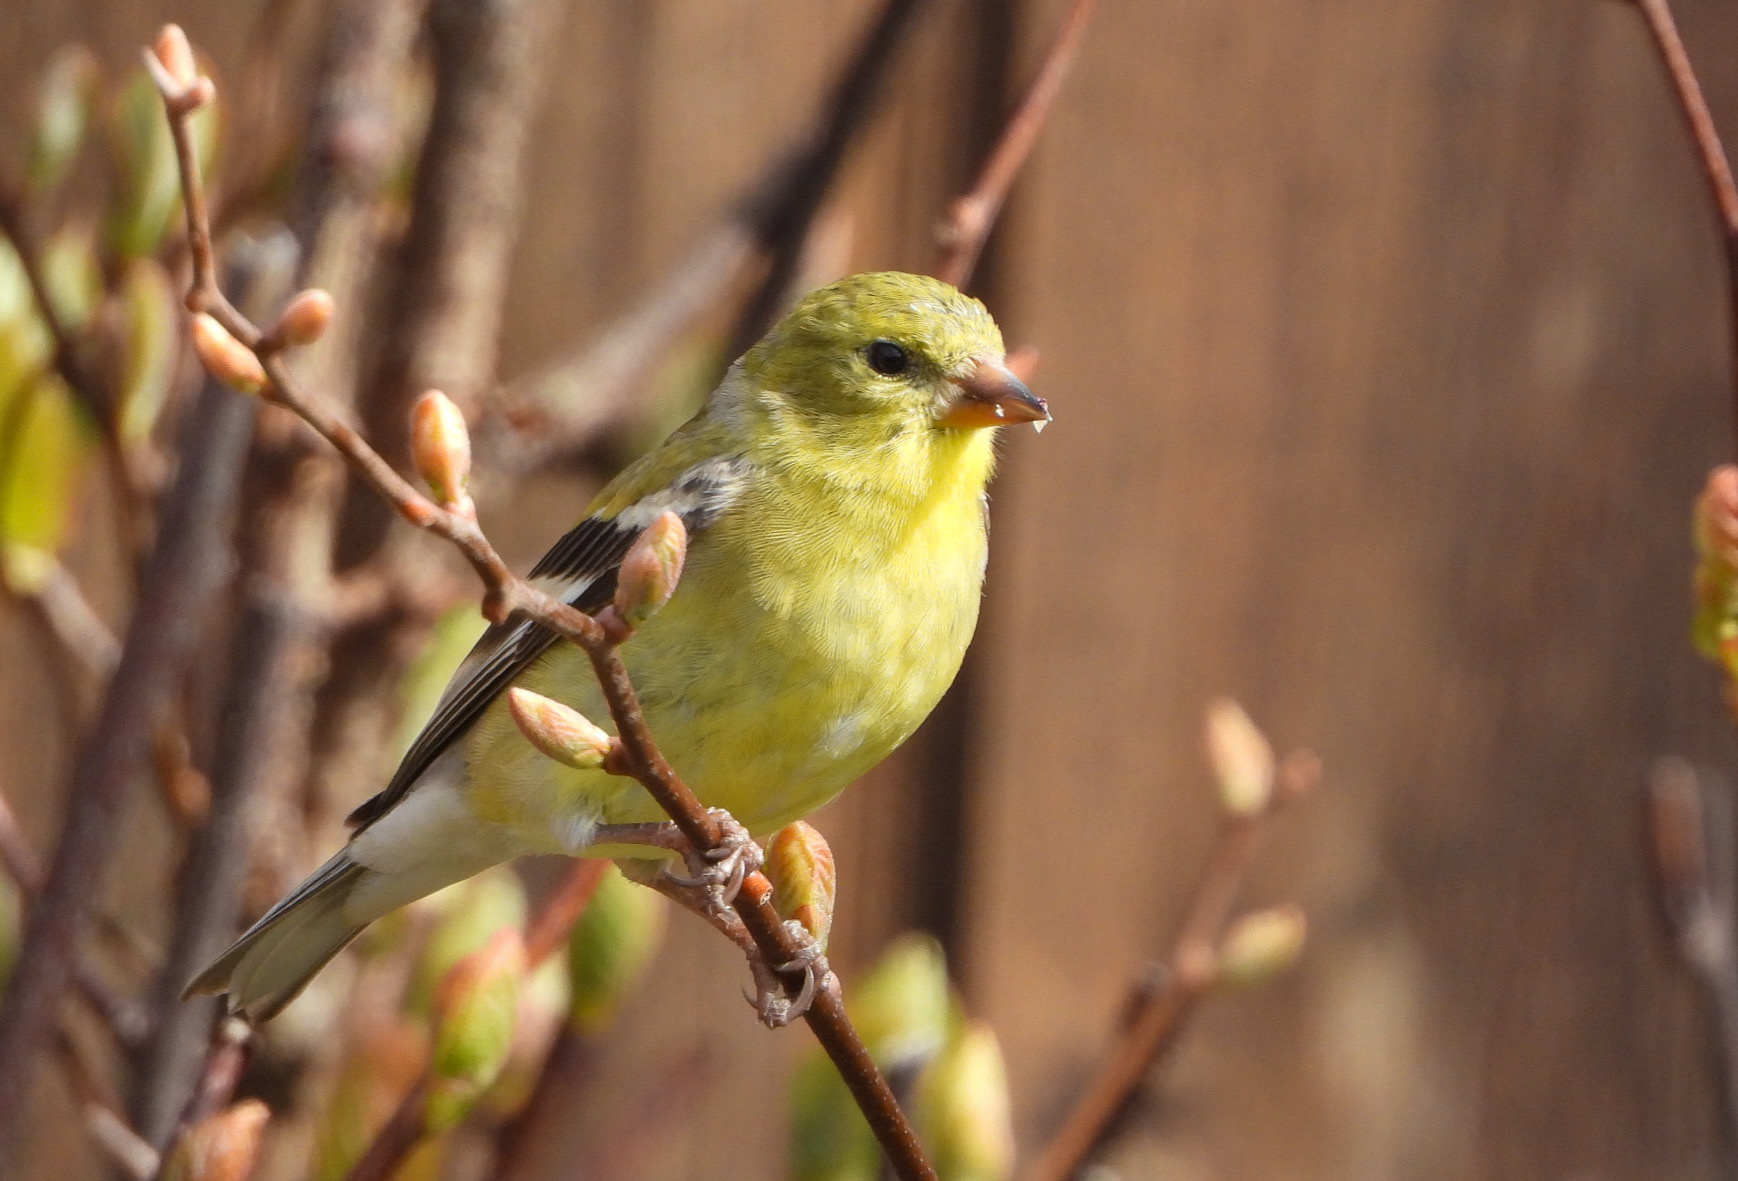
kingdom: Animalia
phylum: Chordata
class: Aves
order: Passeriformes
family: Fringillidae
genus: Spinus
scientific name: Spinus tristis
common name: American goldfinch
